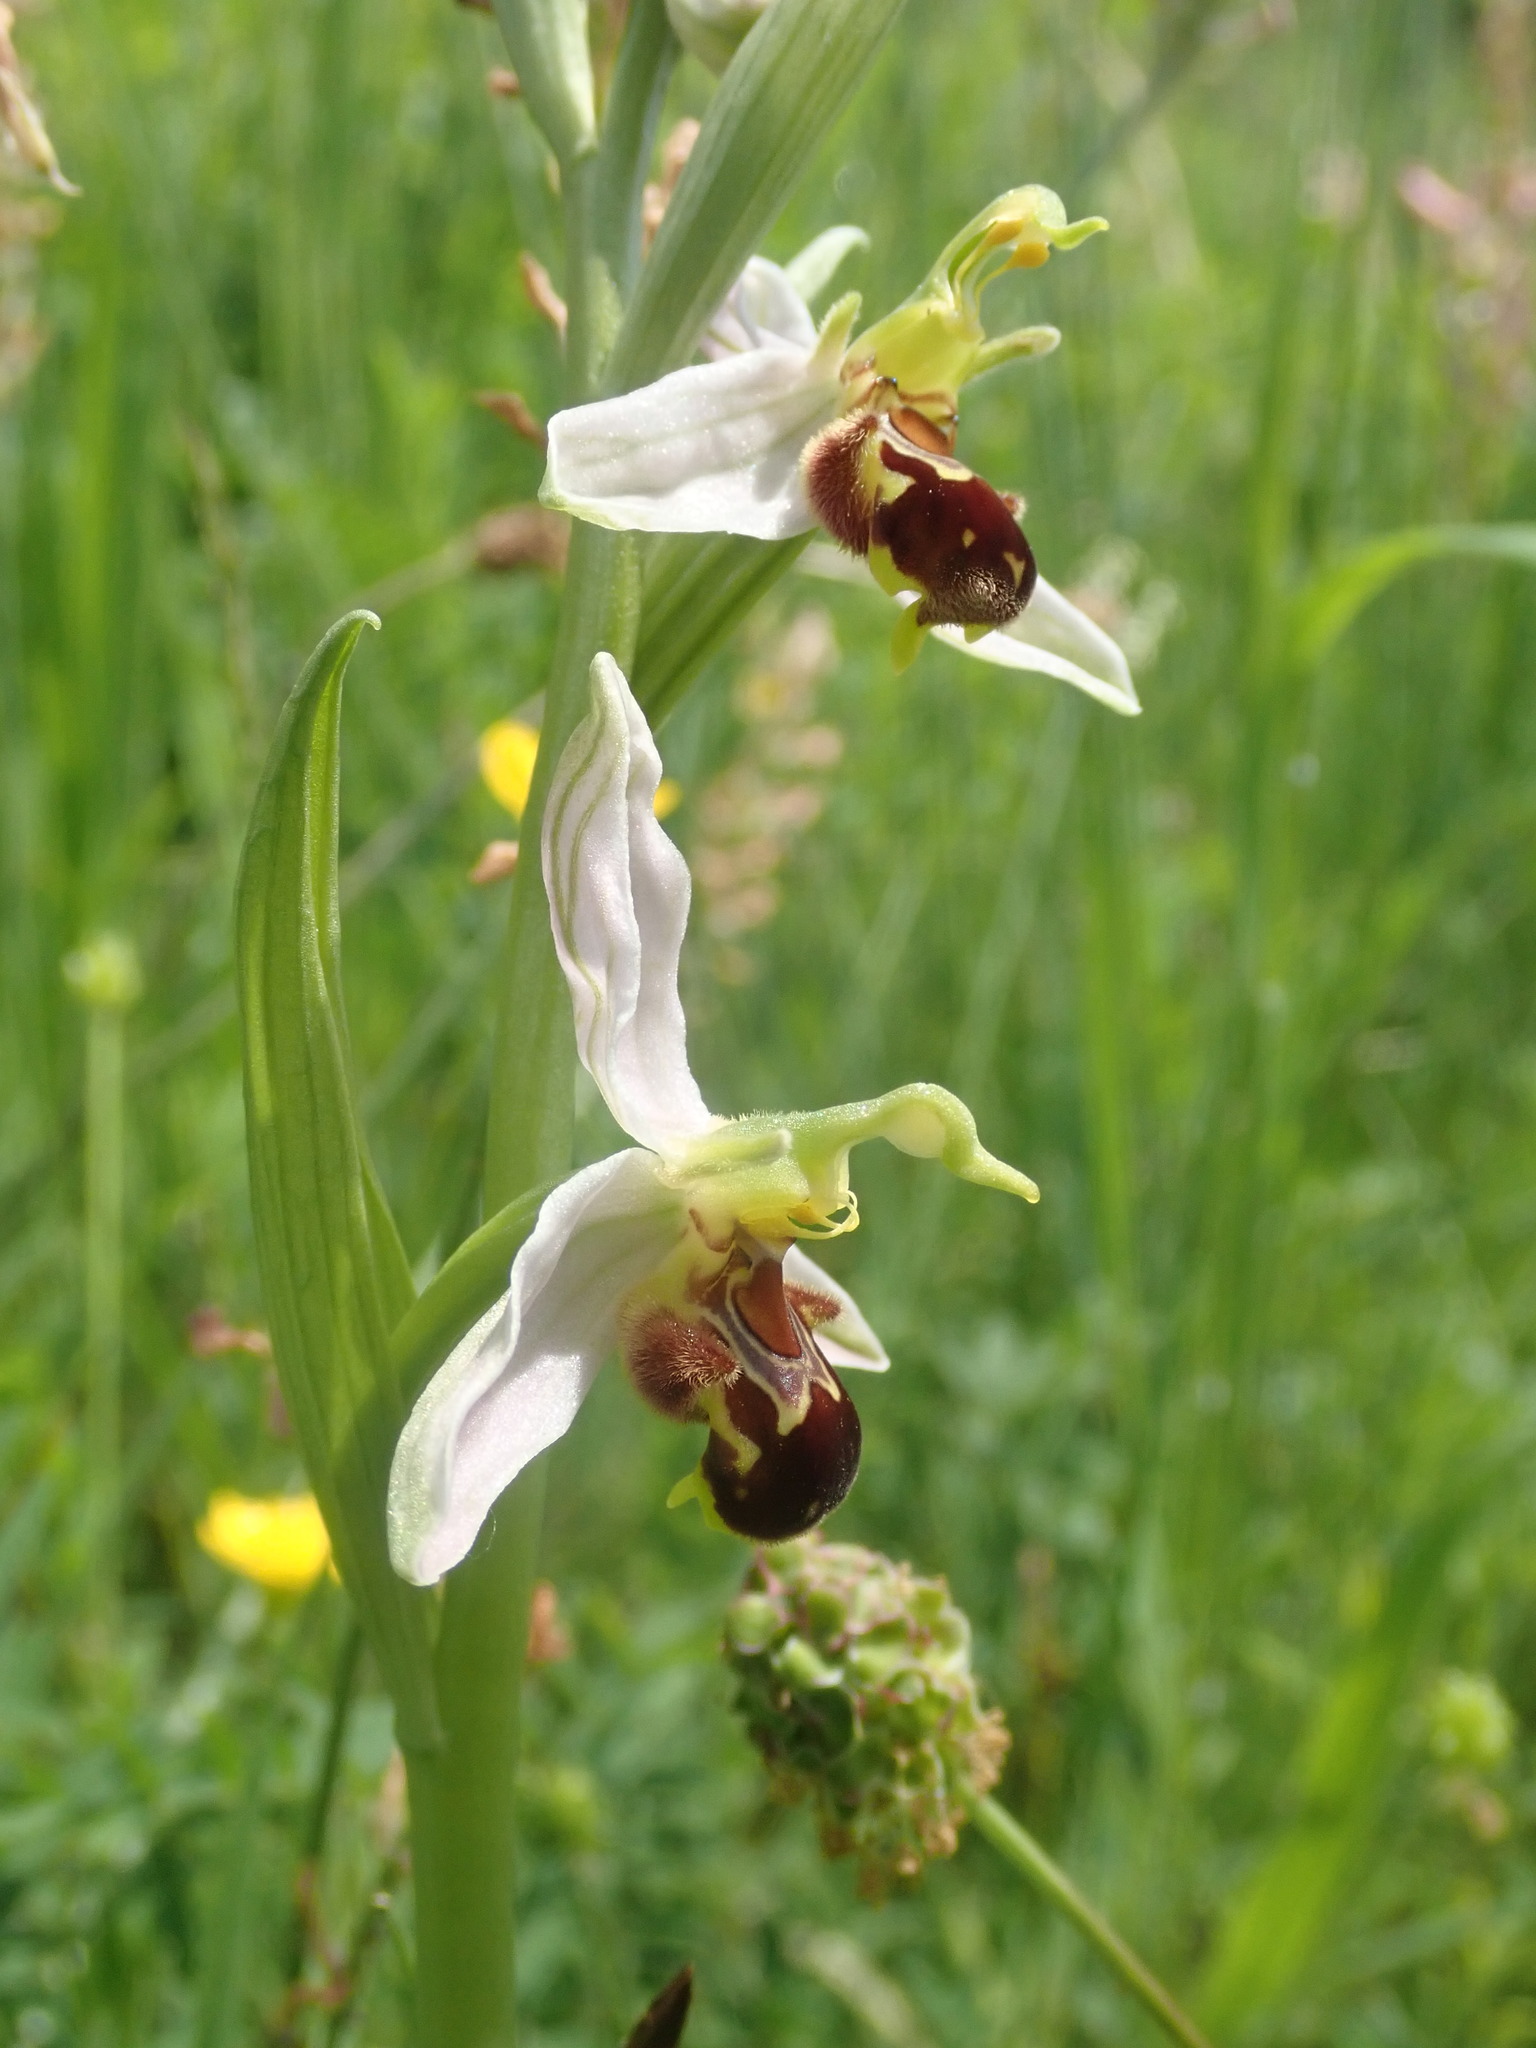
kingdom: Plantae
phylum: Tracheophyta
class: Liliopsida
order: Asparagales
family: Orchidaceae
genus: Ophrys
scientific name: Ophrys apifera
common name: Bee orchid
